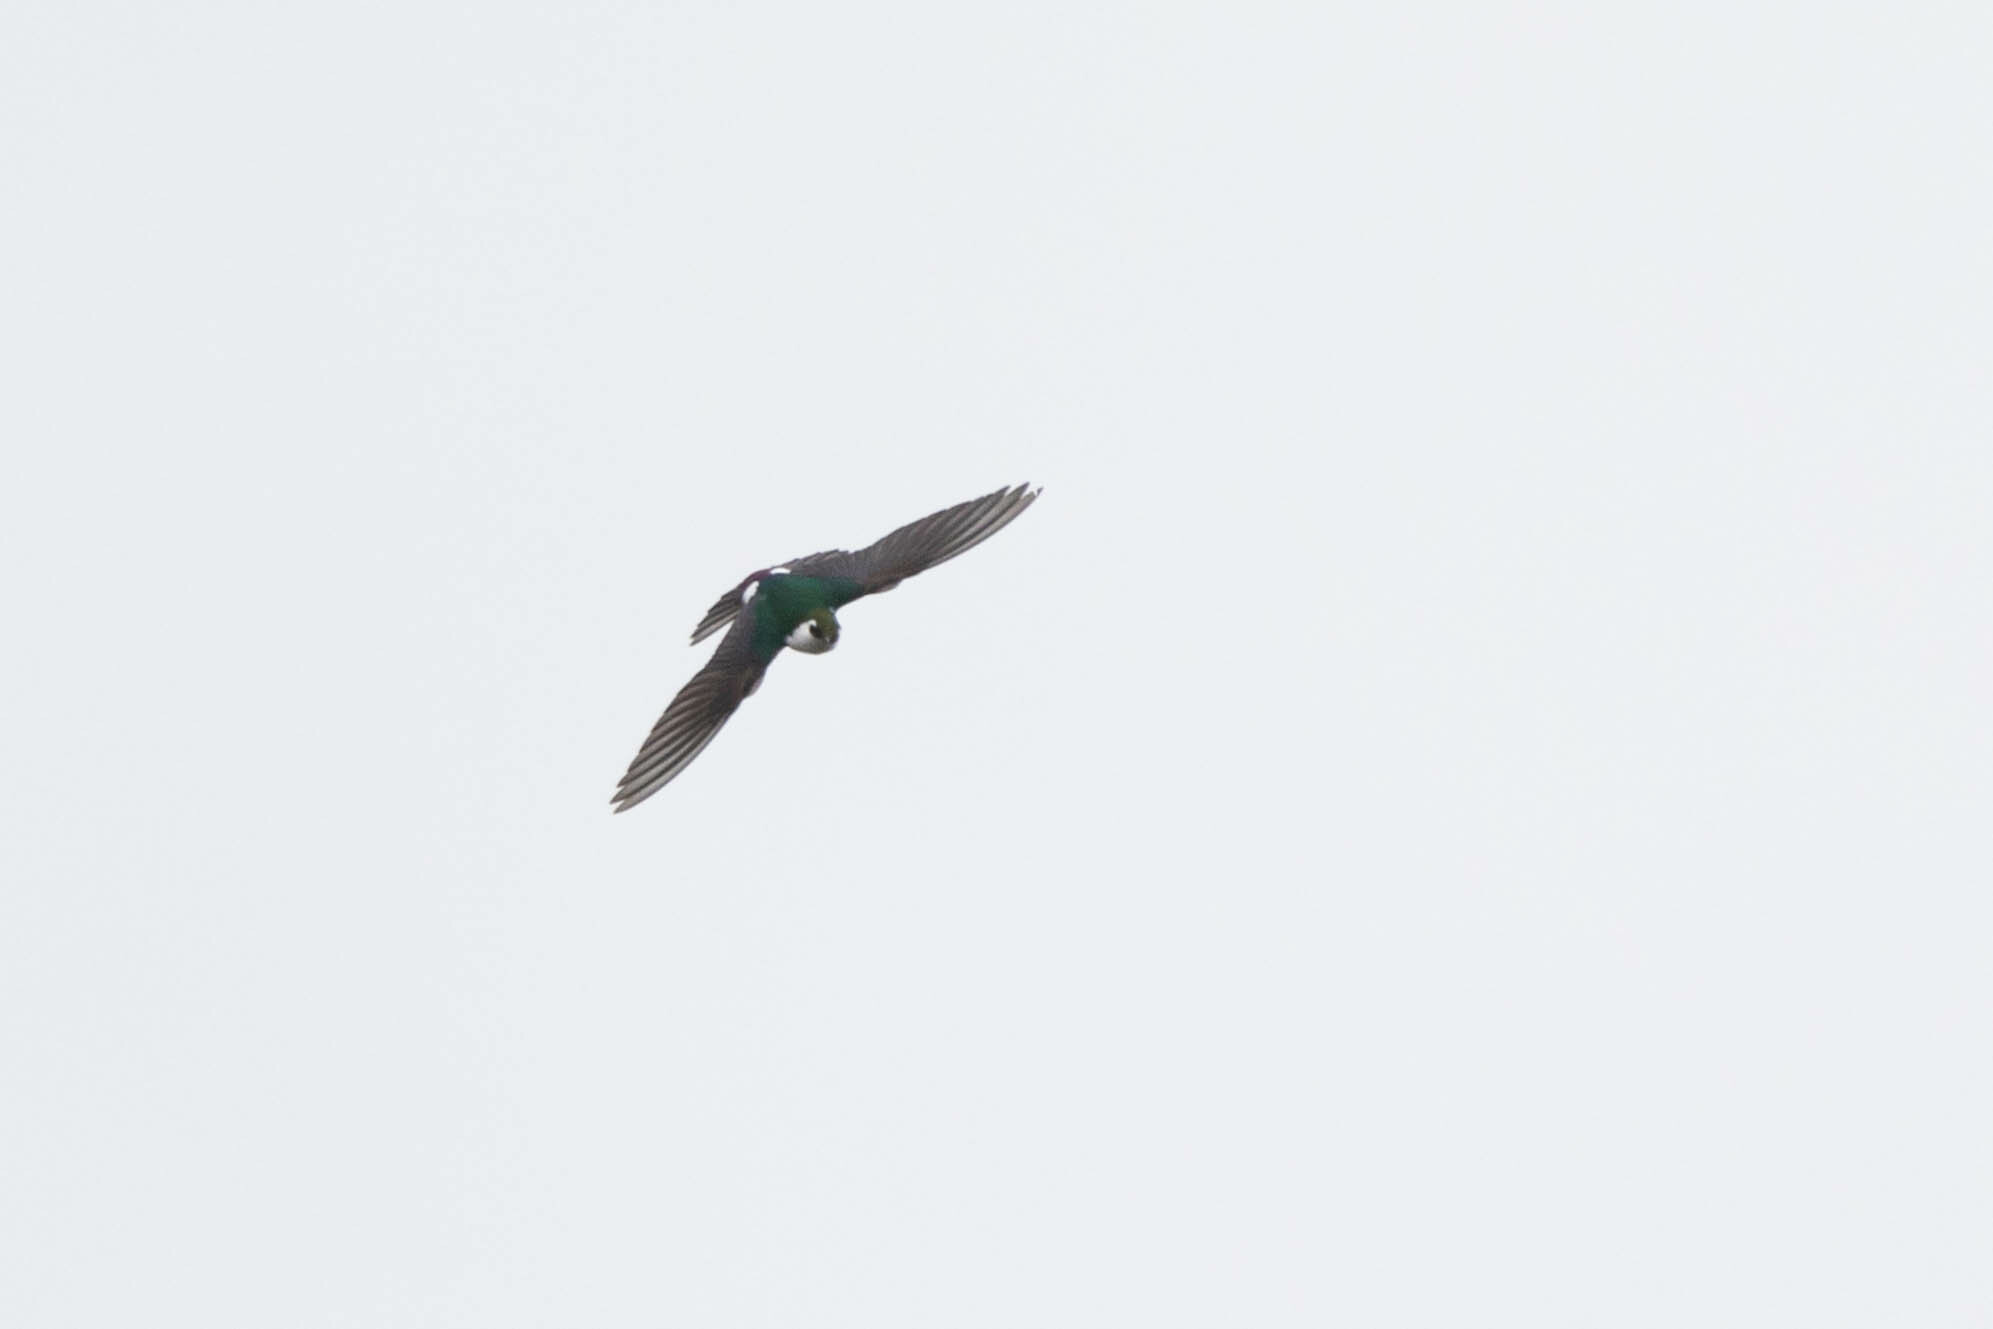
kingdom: Animalia
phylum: Chordata
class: Aves
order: Passeriformes
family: Hirundinidae
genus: Tachycineta
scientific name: Tachycineta thalassina
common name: Violet-green swallow
